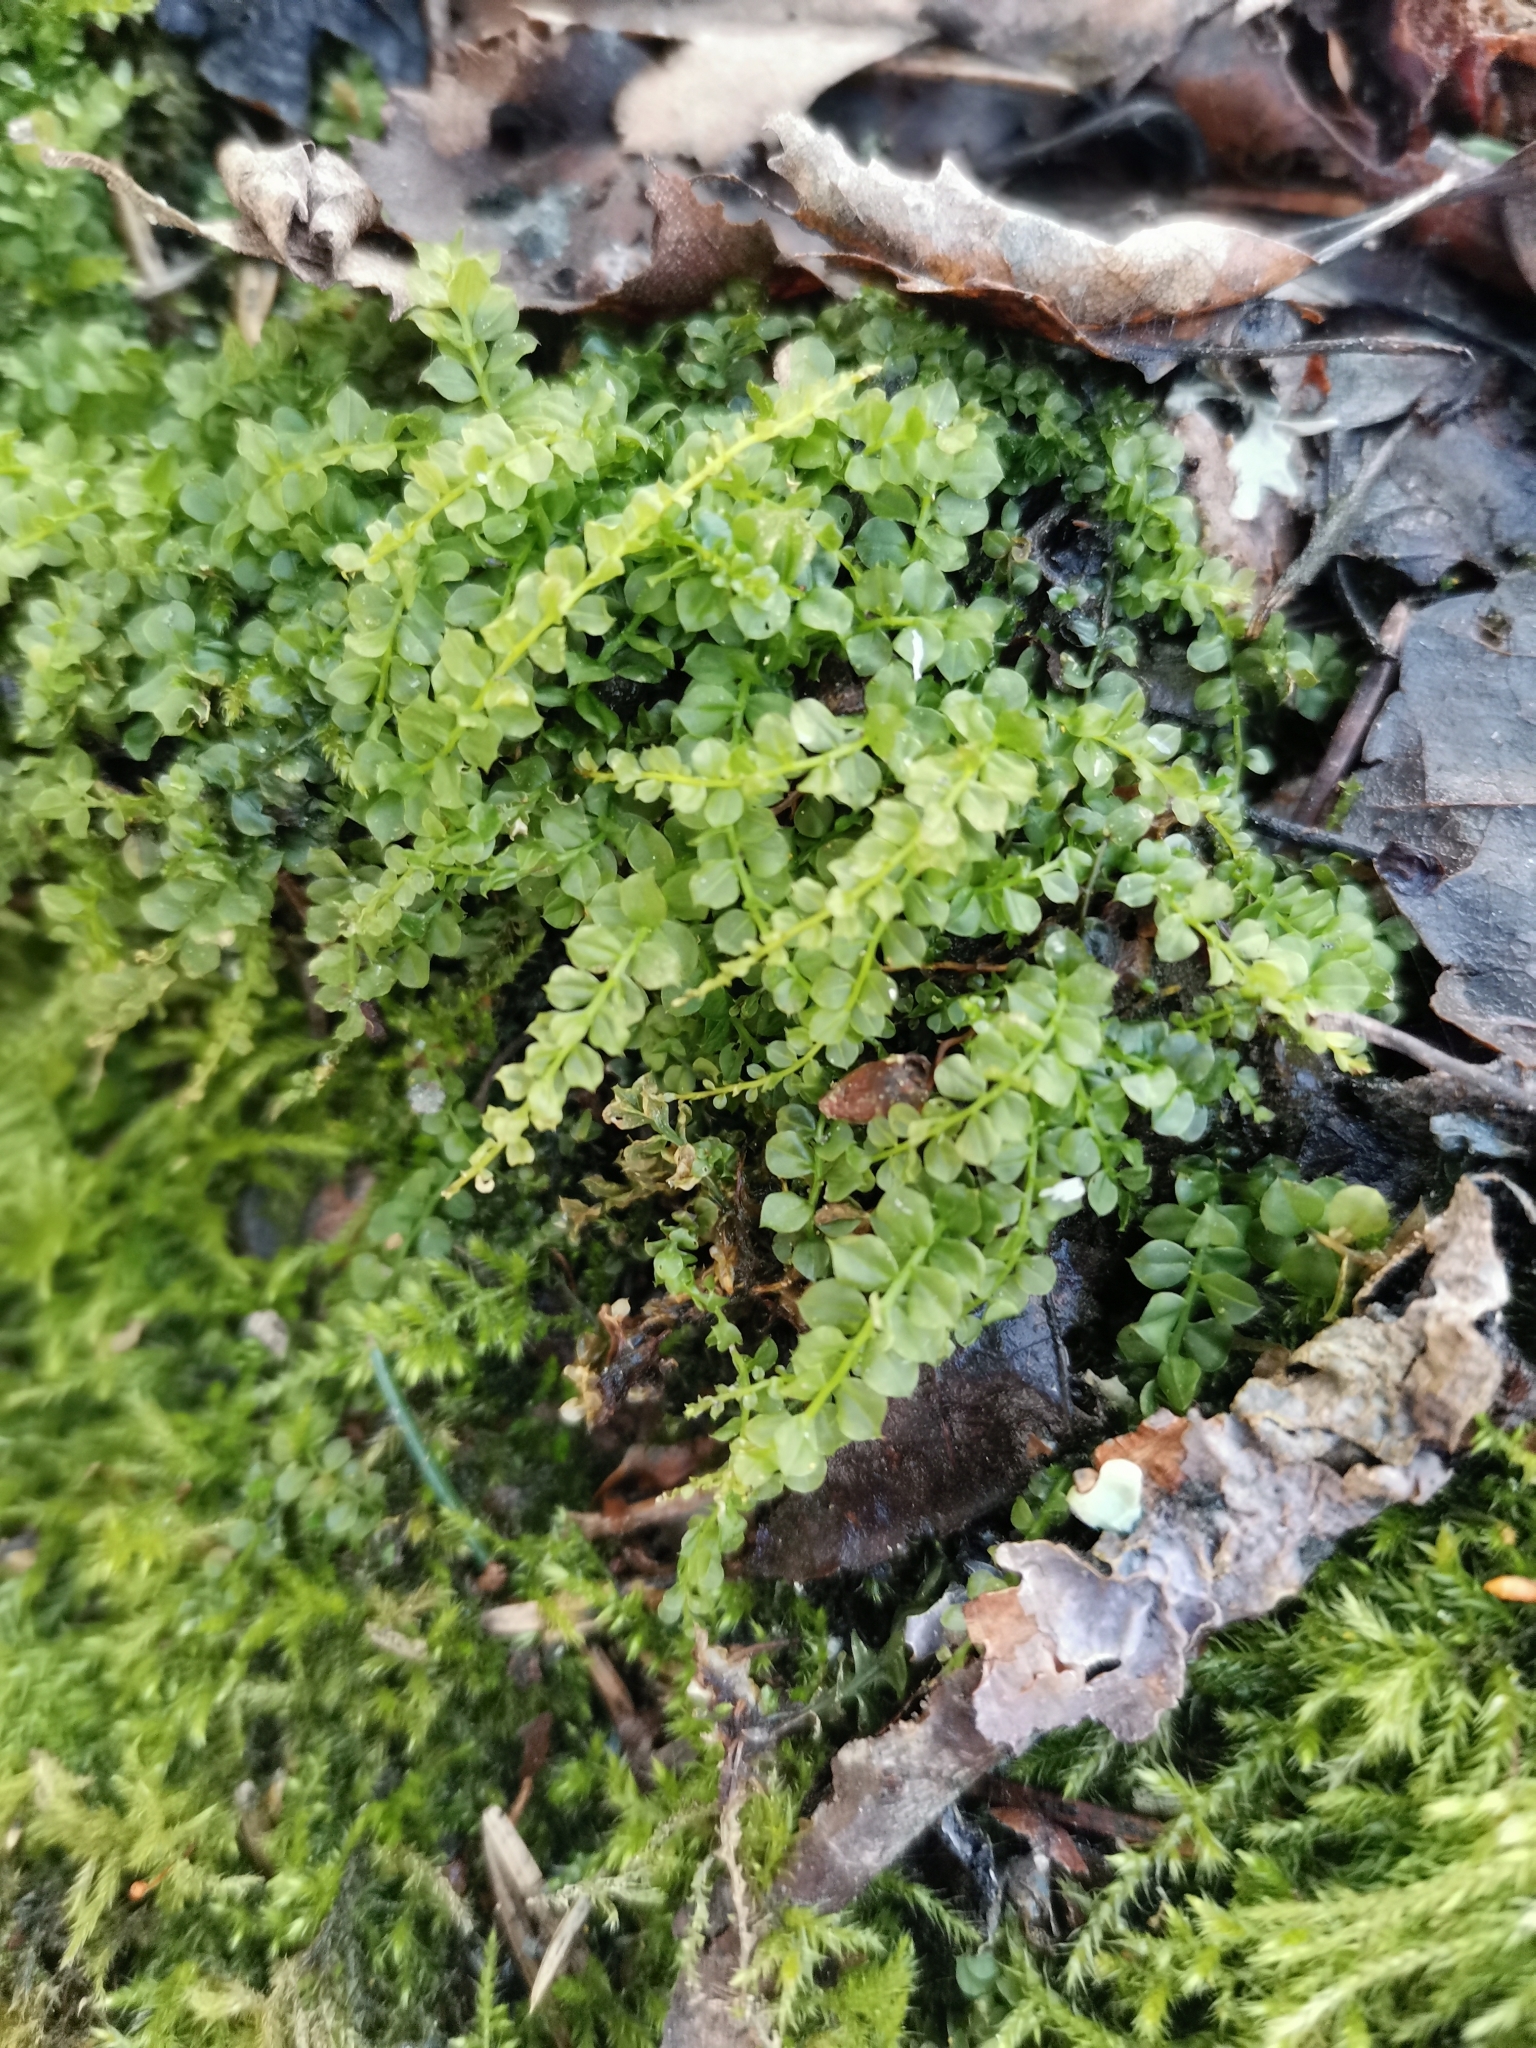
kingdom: Plantae
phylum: Bryophyta
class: Bryopsida
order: Bryales
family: Mniaceae
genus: Plagiomnium
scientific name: Plagiomnium cuspidatum
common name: Woodsy leafy moss
